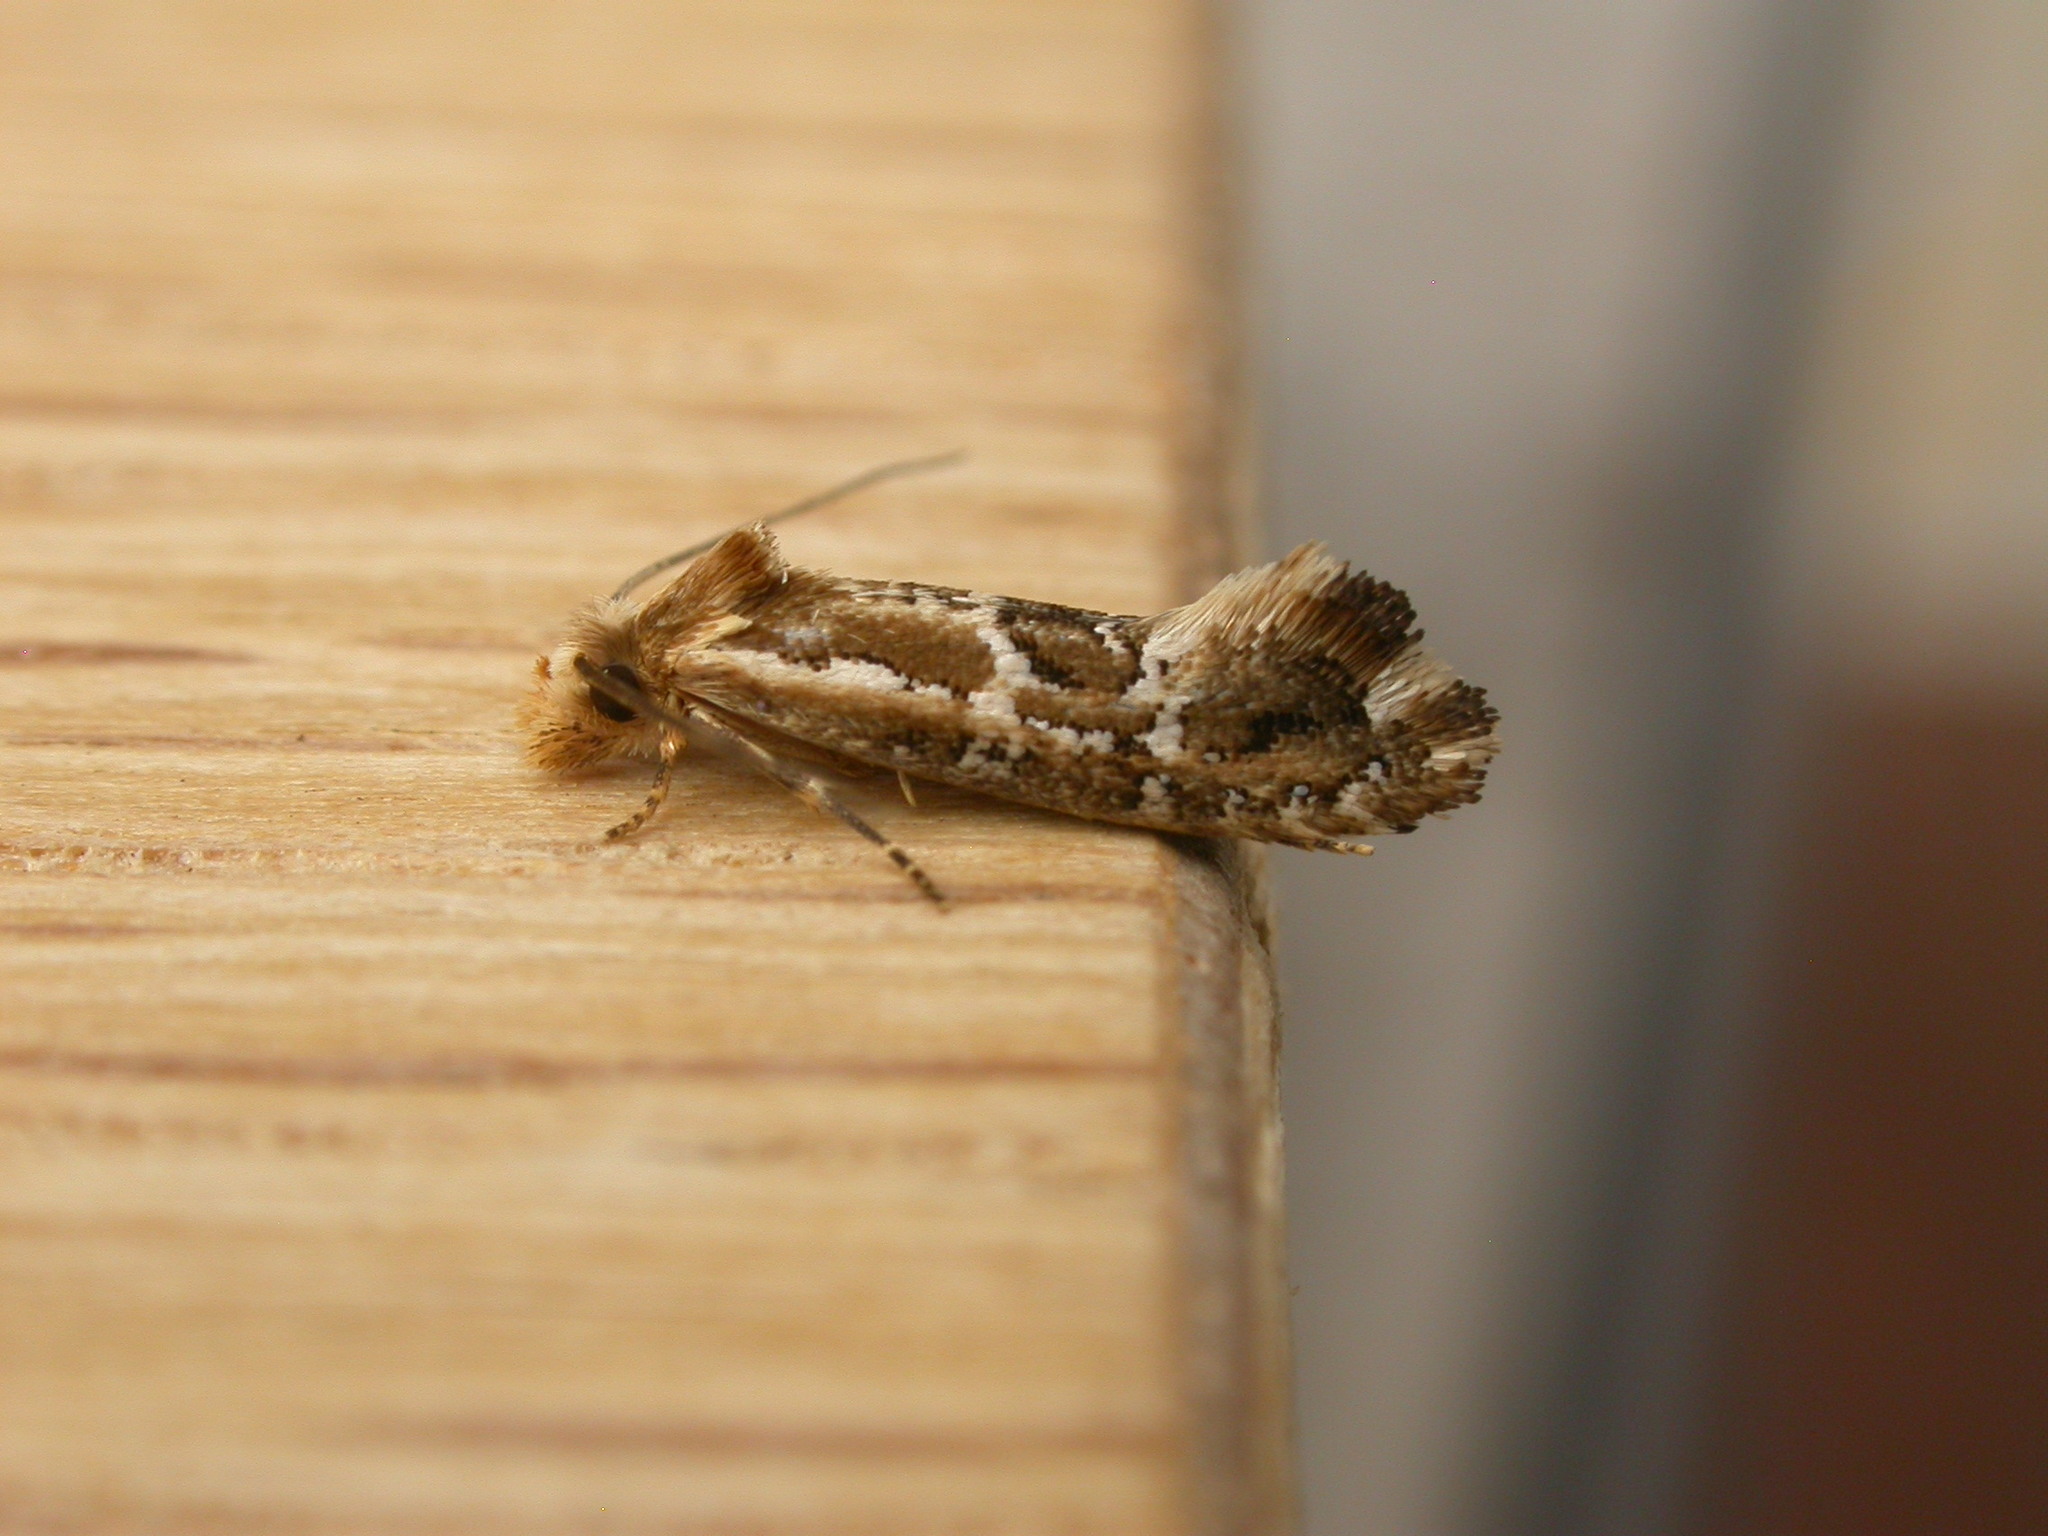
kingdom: Animalia
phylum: Arthropoda
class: Insecta
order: Lepidoptera
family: Tineidae
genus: Moerarchis
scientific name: Moerarchis inconcisella
